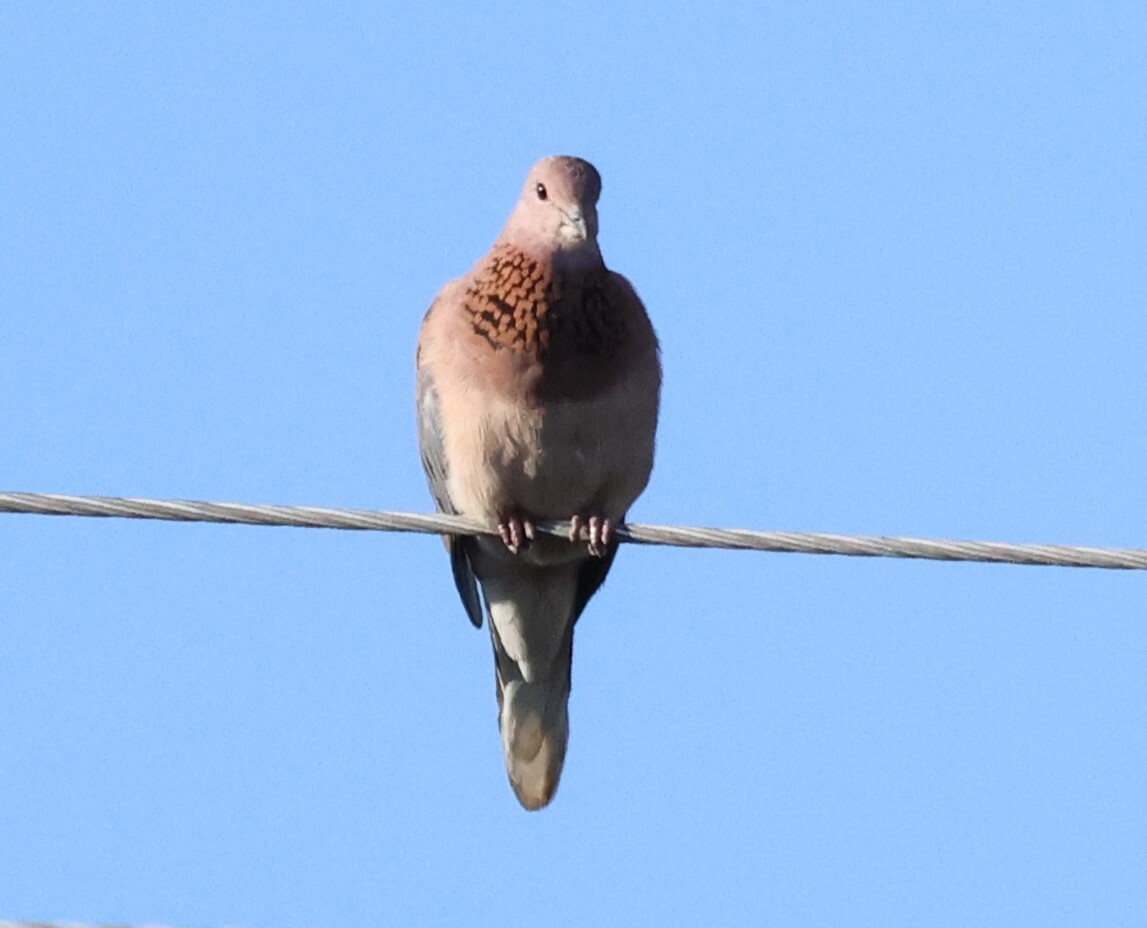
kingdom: Animalia
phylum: Chordata
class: Aves
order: Columbiformes
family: Columbidae
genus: Spilopelia
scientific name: Spilopelia senegalensis
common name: Laughing dove
